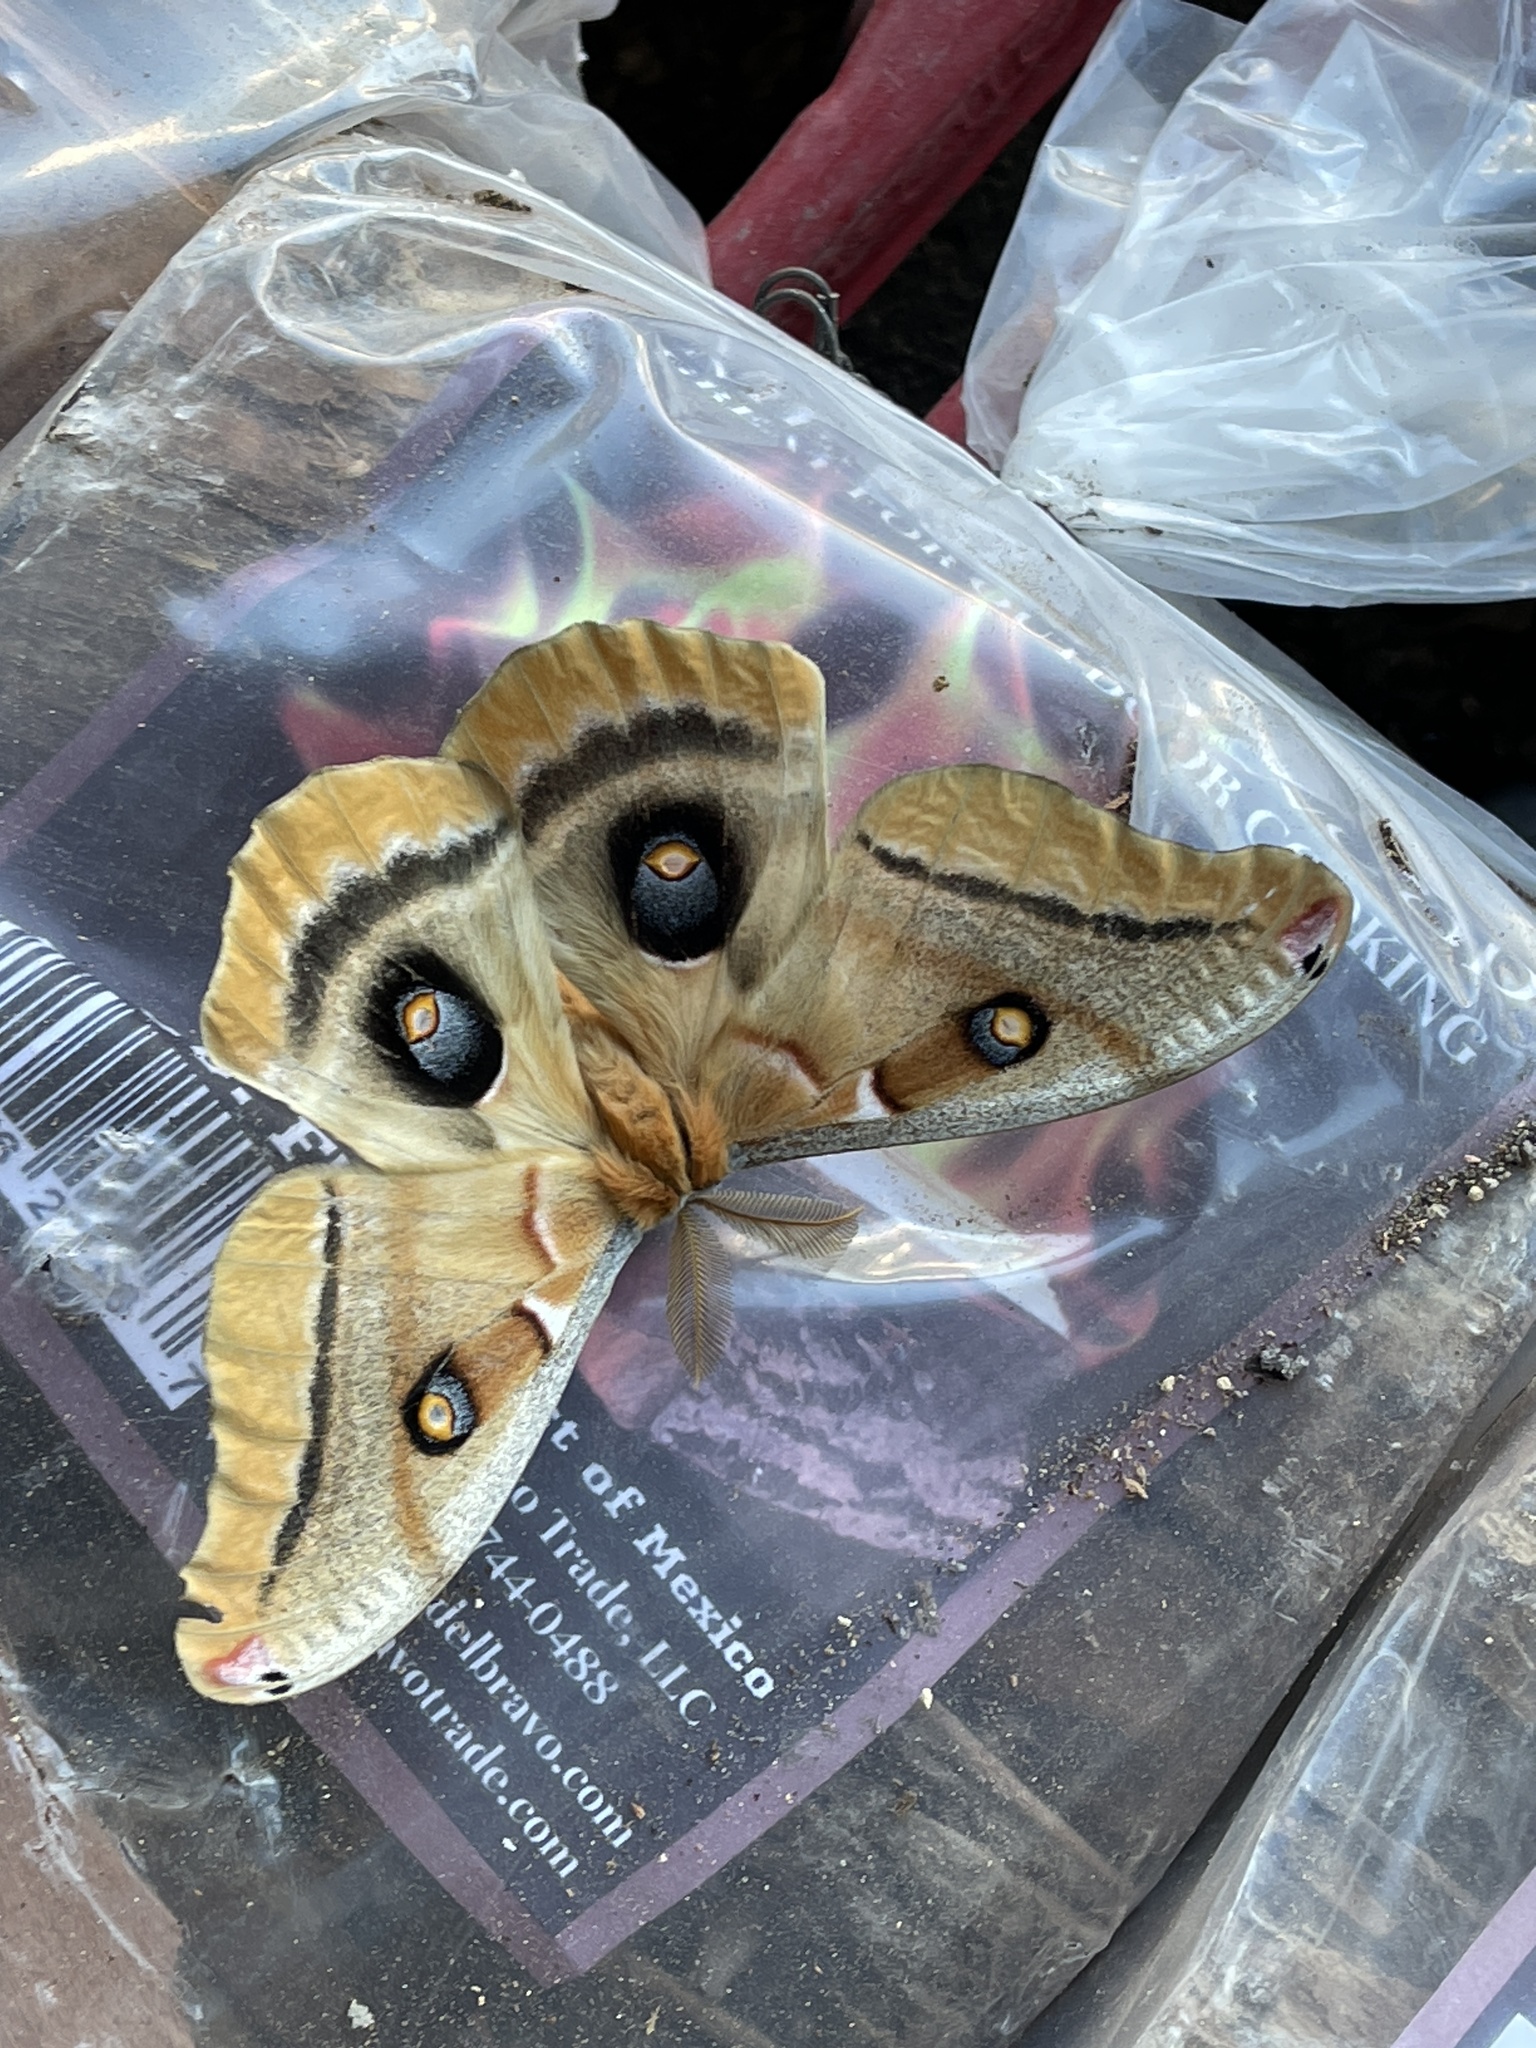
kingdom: Animalia
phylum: Arthropoda
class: Insecta
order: Lepidoptera
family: Saturniidae
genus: Antheraea
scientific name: Antheraea oculea
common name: Arizona polyphemus moth
